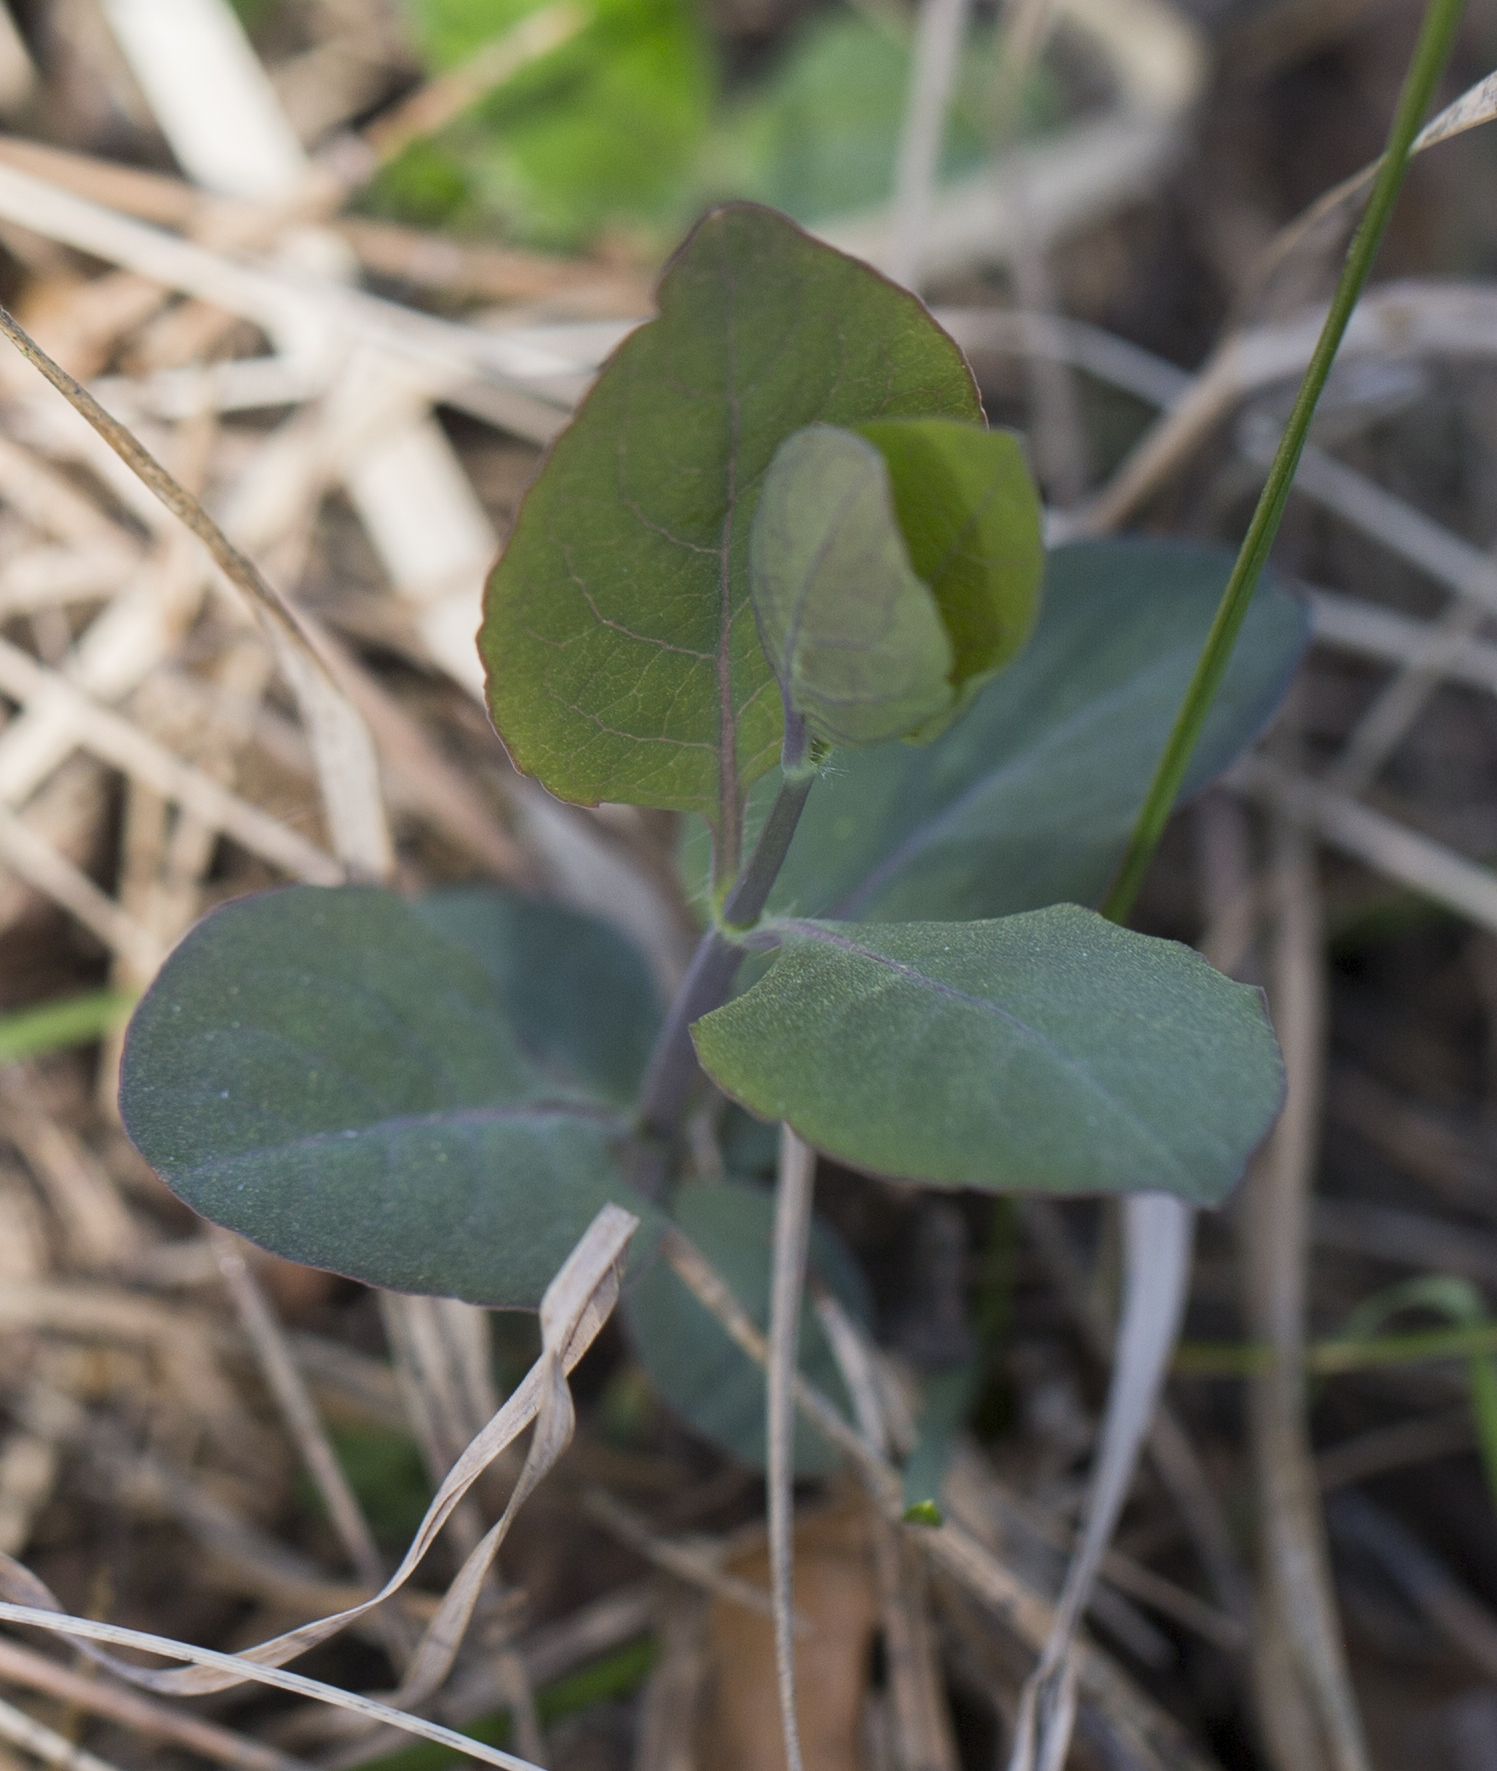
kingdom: Plantae
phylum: Tracheophyta
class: Magnoliopsida
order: Dipsacales
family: Caprifoliaceae
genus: Lonicera
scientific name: Lonicera caprifolium
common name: Perfoliate honeysuckle
